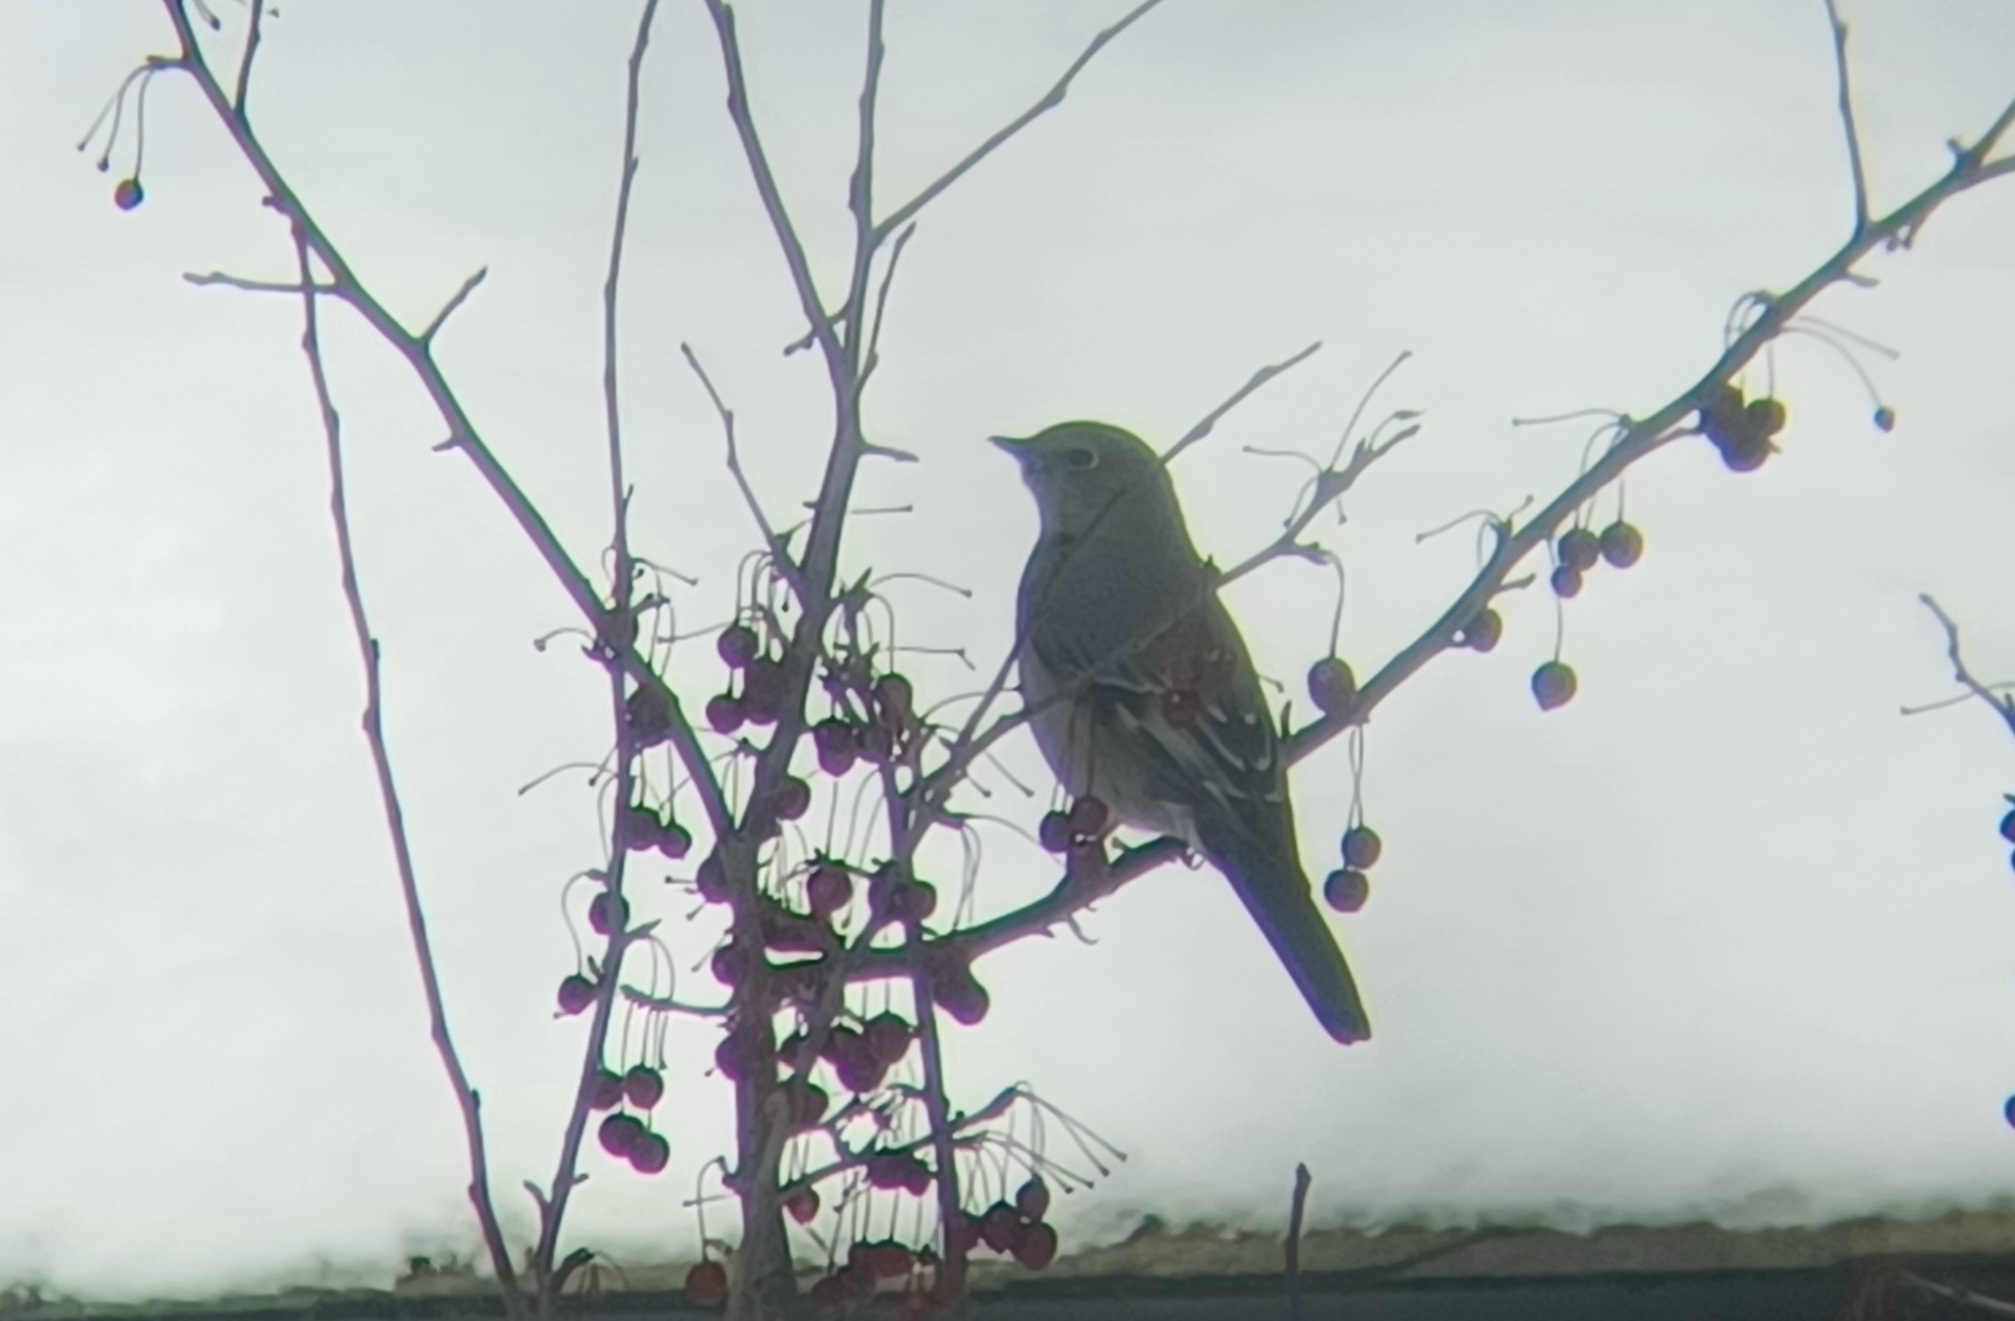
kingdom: Animalia
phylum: Chordata
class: Aves
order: Passeriformes
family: Turdidae
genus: Myadestes
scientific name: Myadestes townsendi
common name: Townsend's solitaire
